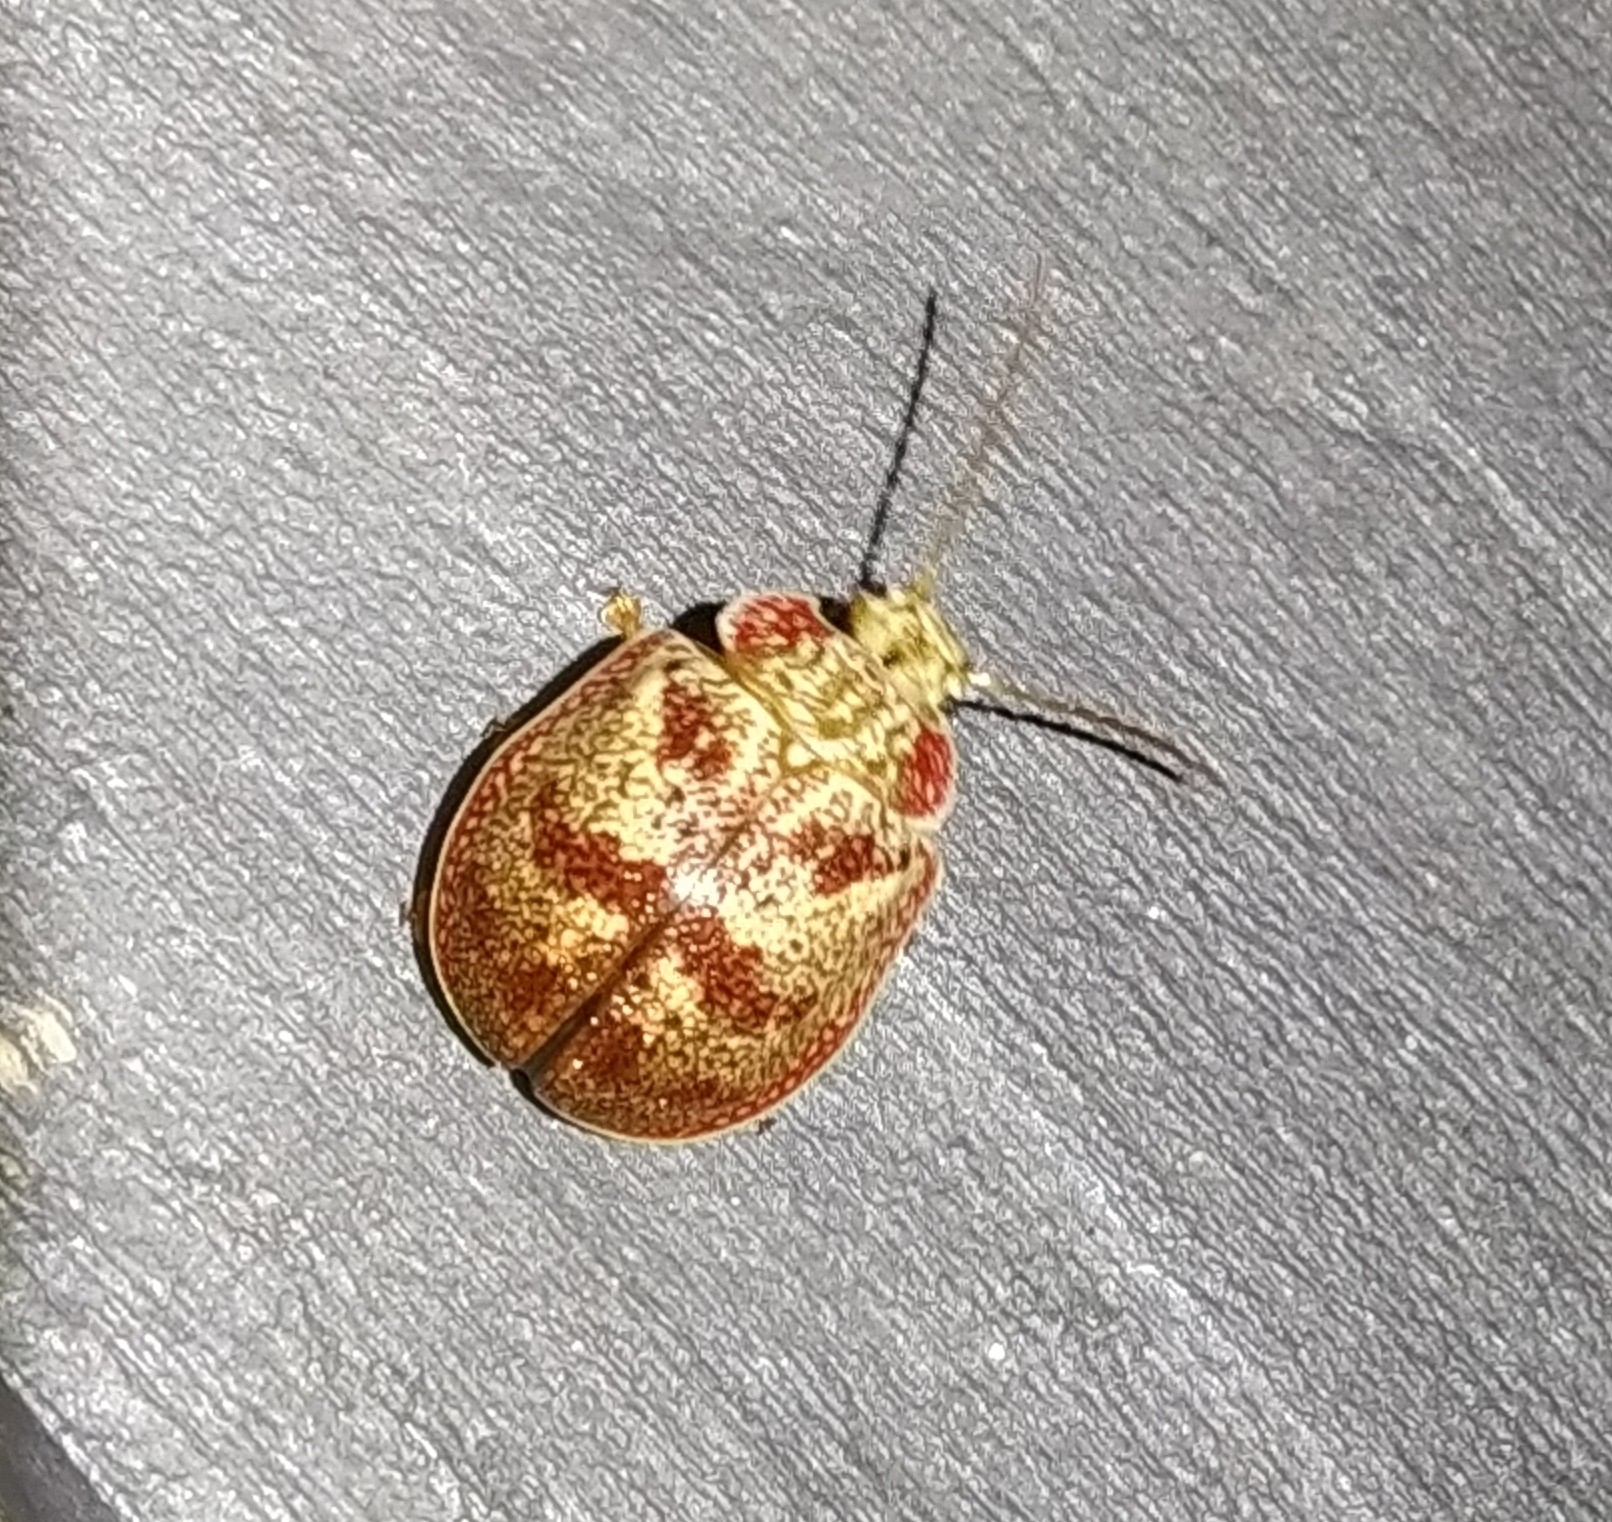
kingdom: Animalia
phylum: Arthropoda
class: Insecta
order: Coleoptera
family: Chrysomelidae
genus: Paropsis
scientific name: Paropsis charybdis
